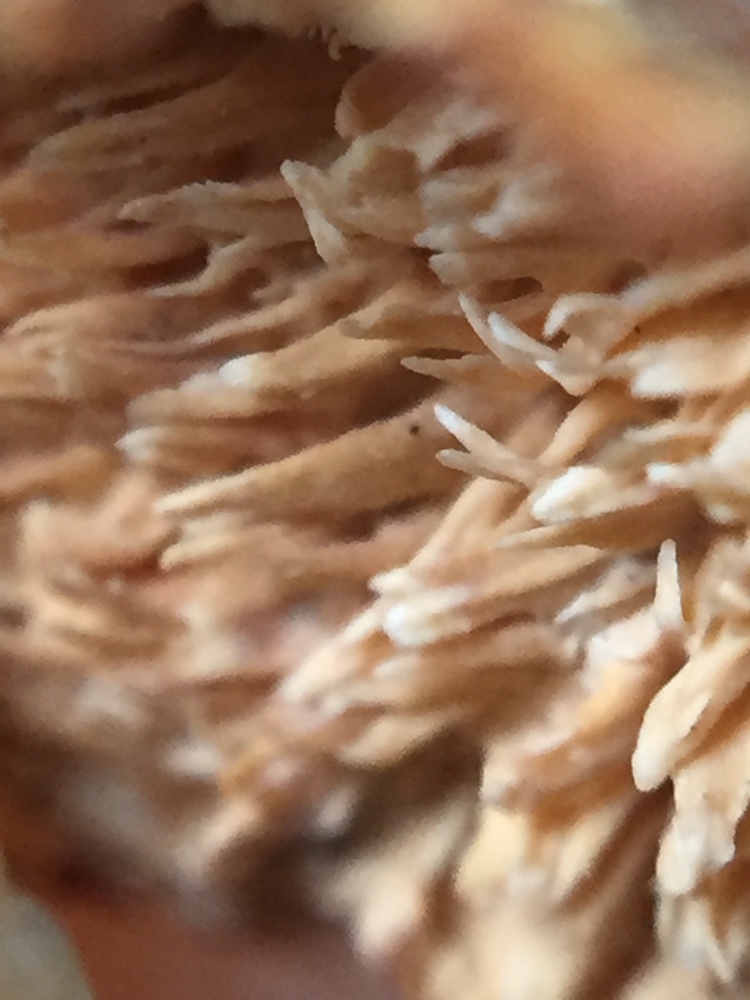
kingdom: Fungi
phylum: Basidiomycota
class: Agaricomycetes
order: Polyporales
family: Cerrenaceae
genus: Cerrena
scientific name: Cerrena zonata
